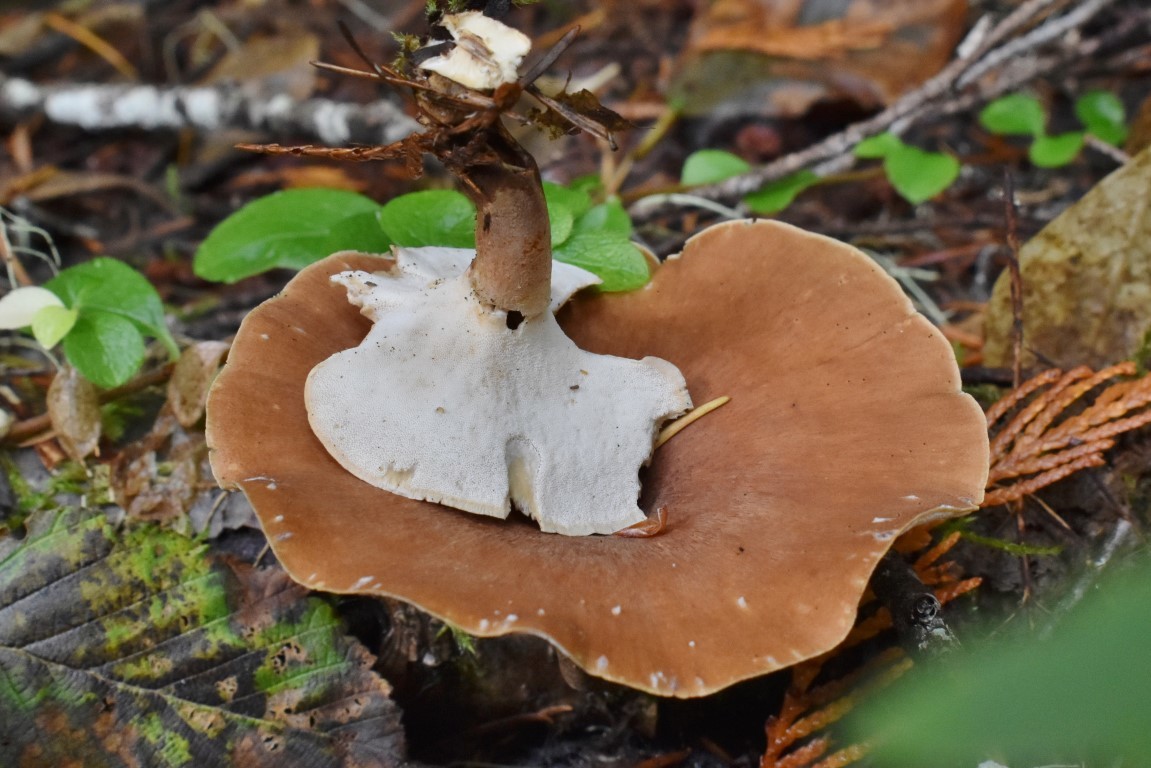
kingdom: Fungi
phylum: Basidiomycota
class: Agaricomycetes
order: Polyporales
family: Polyporaceae
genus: Picipes
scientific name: Picipes badius
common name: Bay polypore
